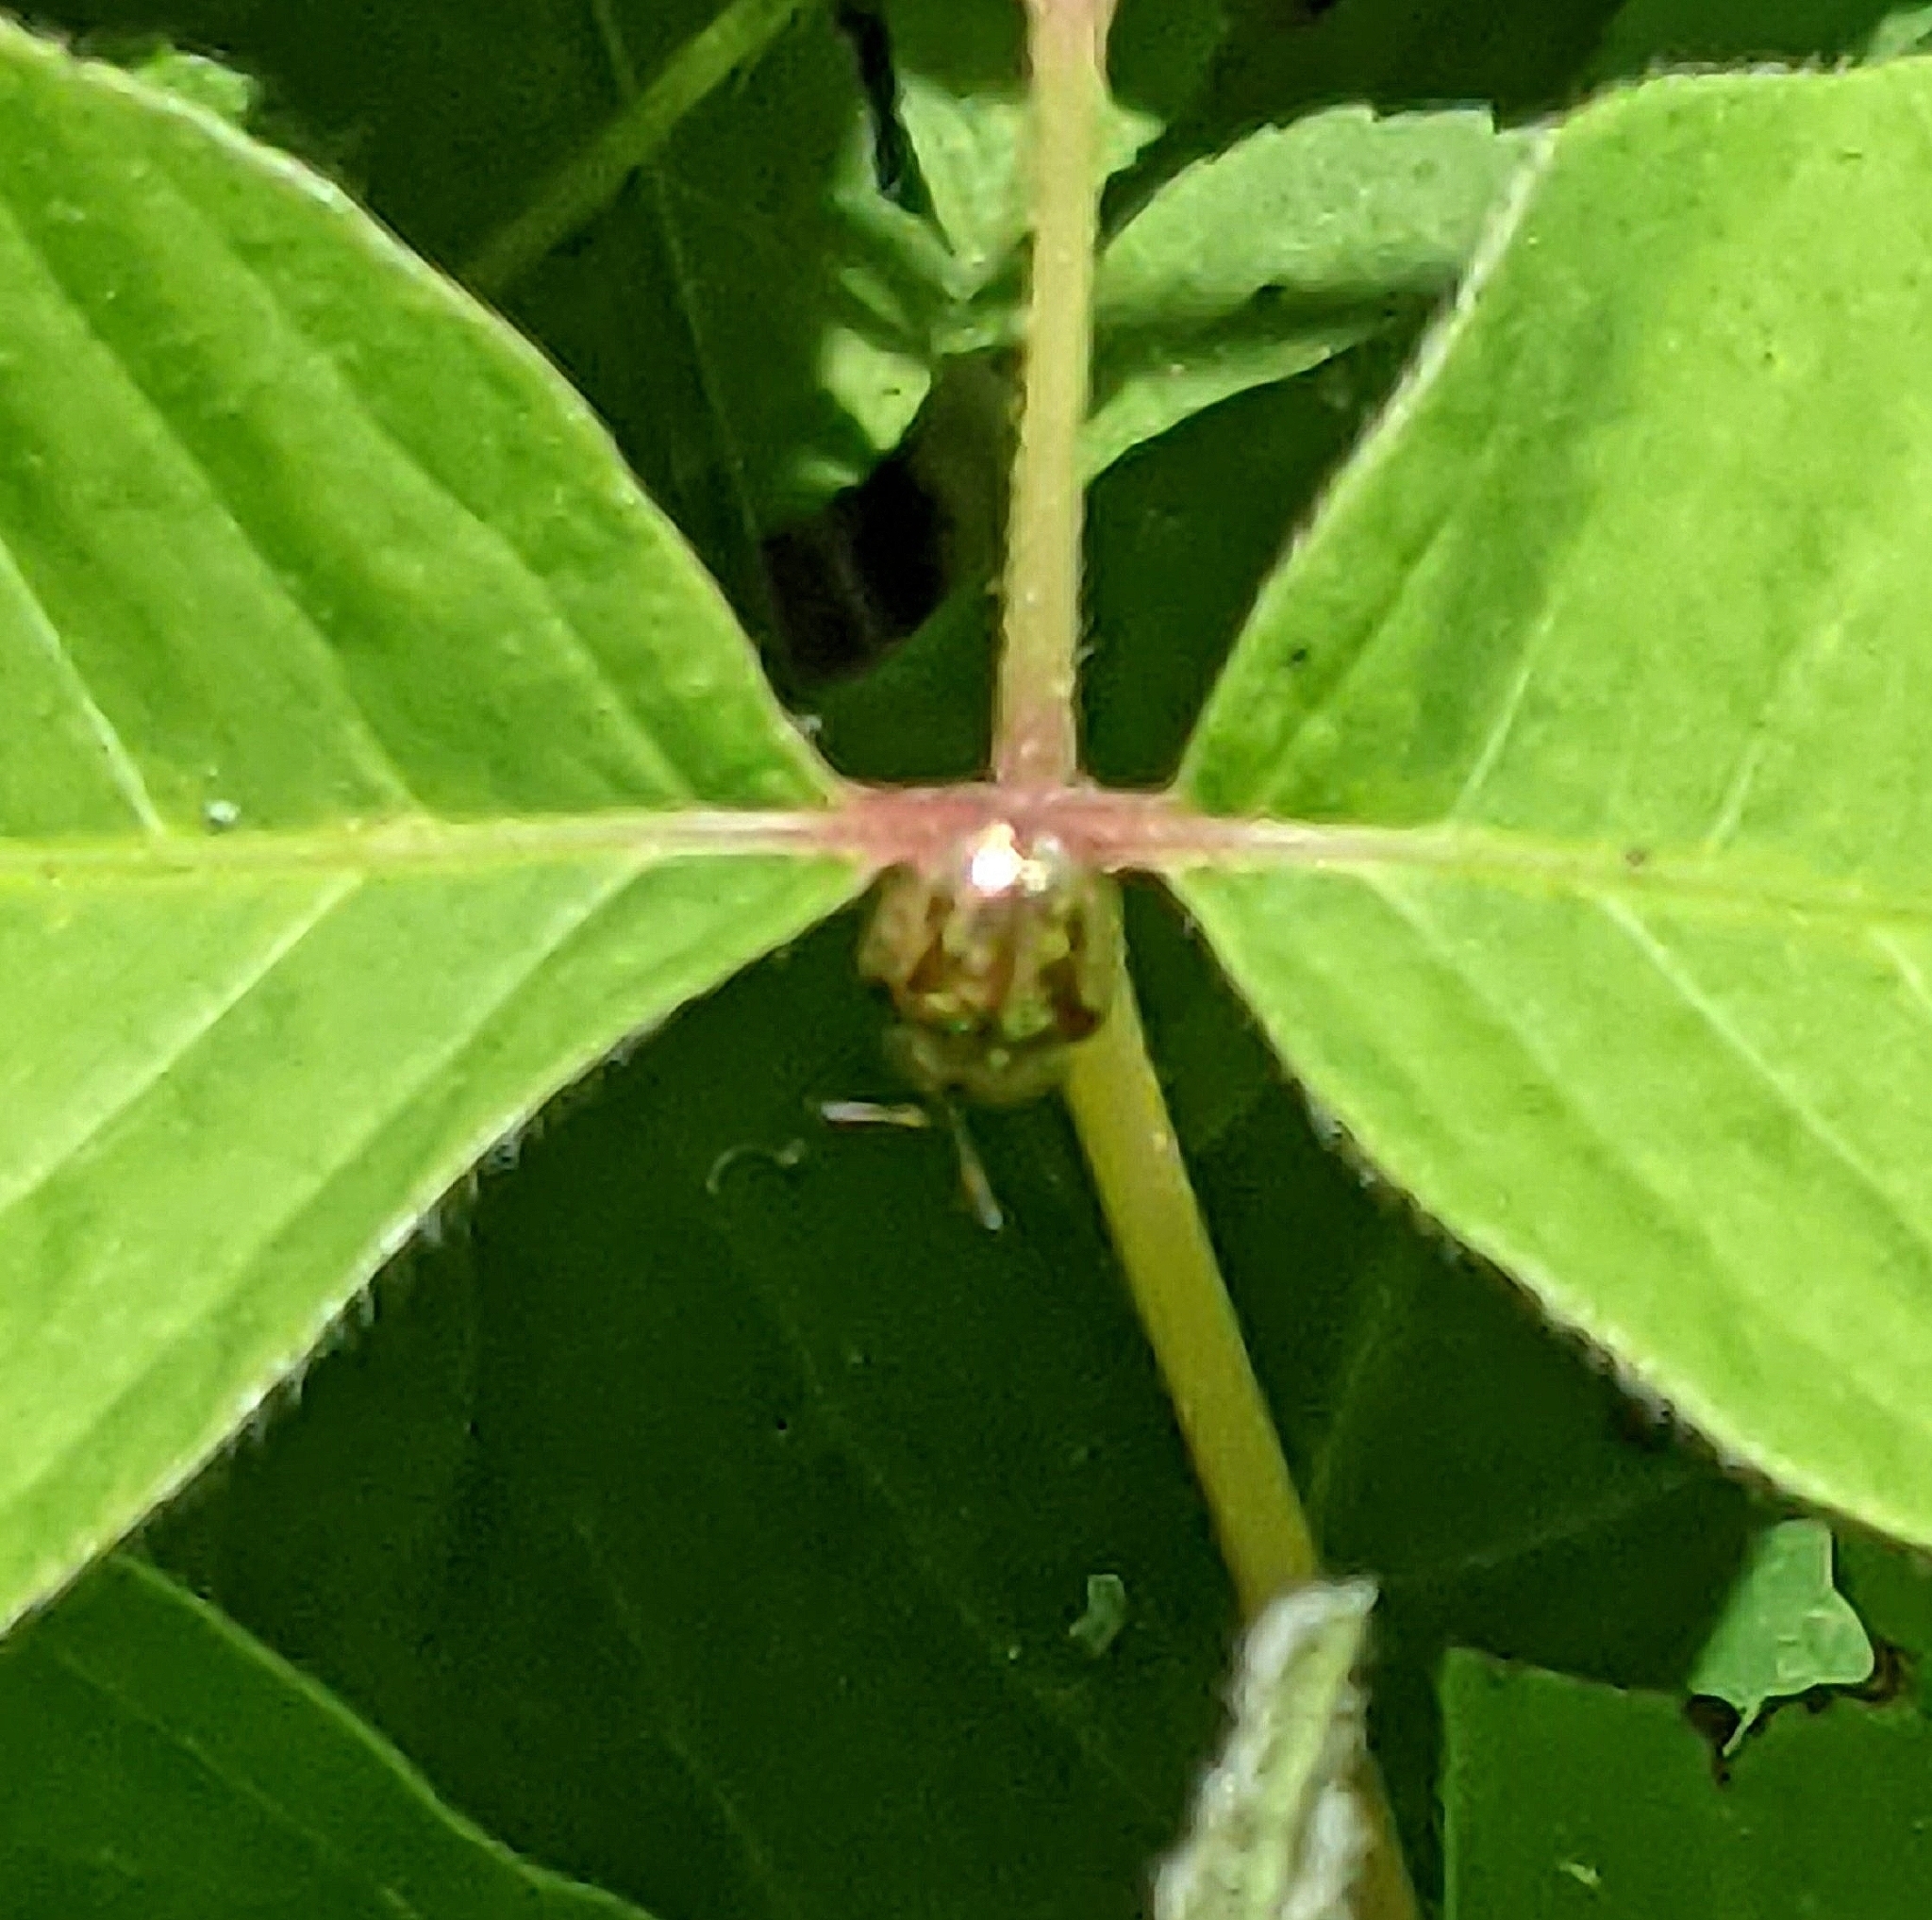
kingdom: Animalia
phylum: Arthropoda
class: Insecta
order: Coleoptera
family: Chrysomelidae
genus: Charidotella
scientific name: Charidotella sexpunctata
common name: Golden tortoise beetle
